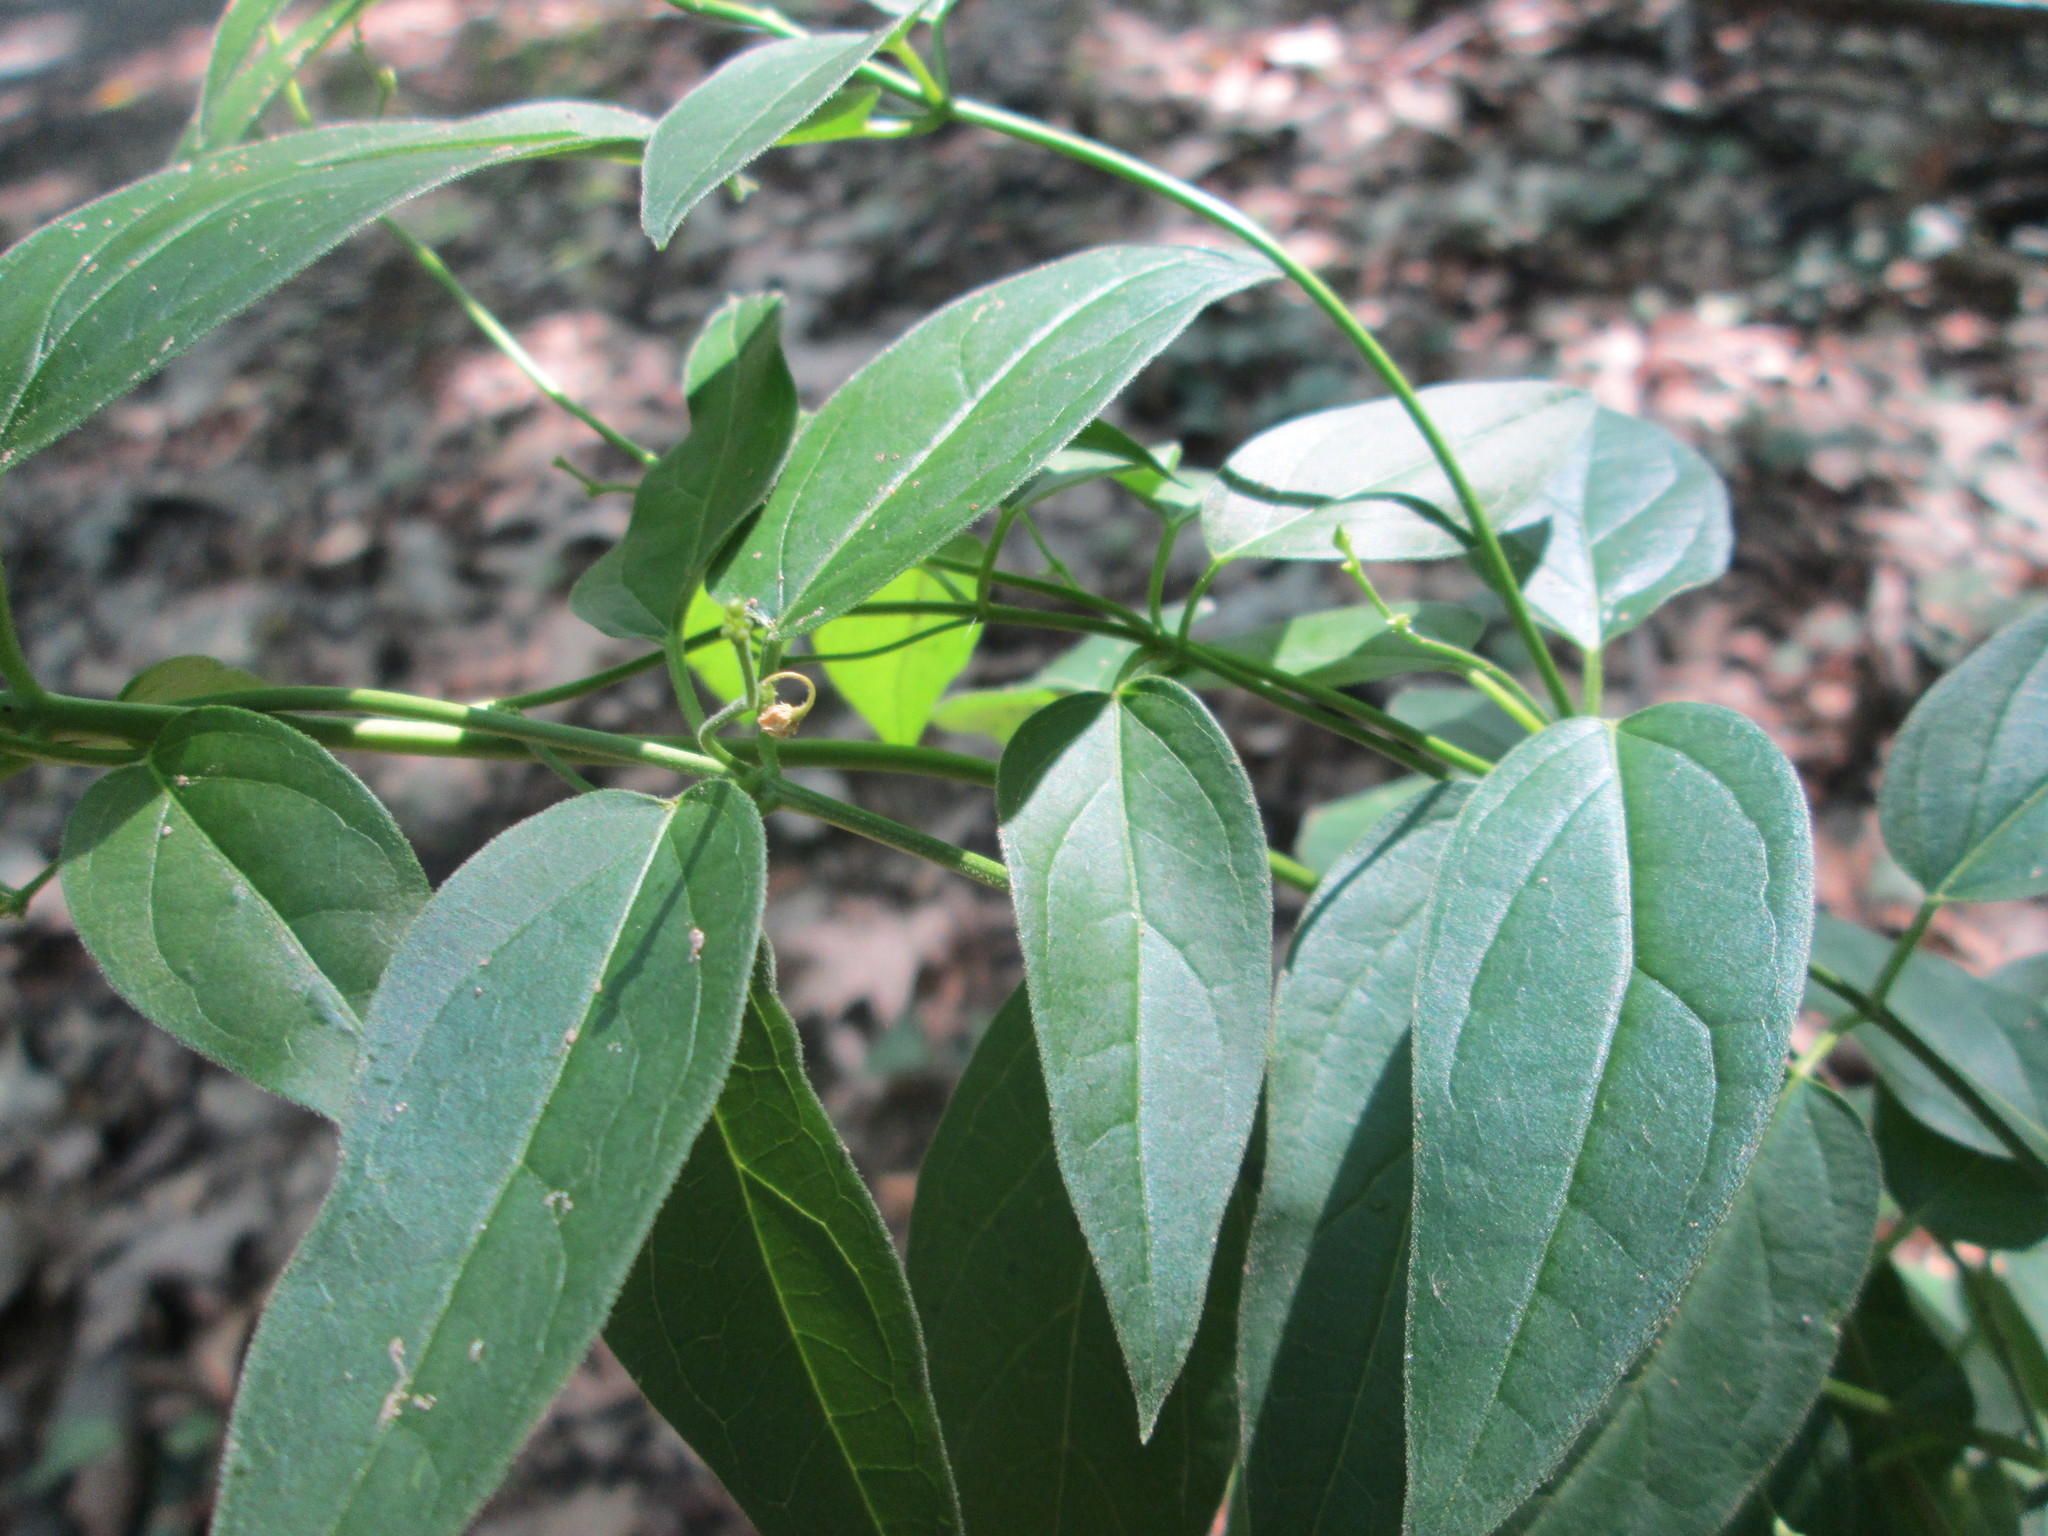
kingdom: Plantae
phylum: Tracheophyta
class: Magnoliopsida
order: Gentianales
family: Apocynaceae
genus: Vincetoxicum
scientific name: Vincetoxicum hirundinaria
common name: White swallowwort
